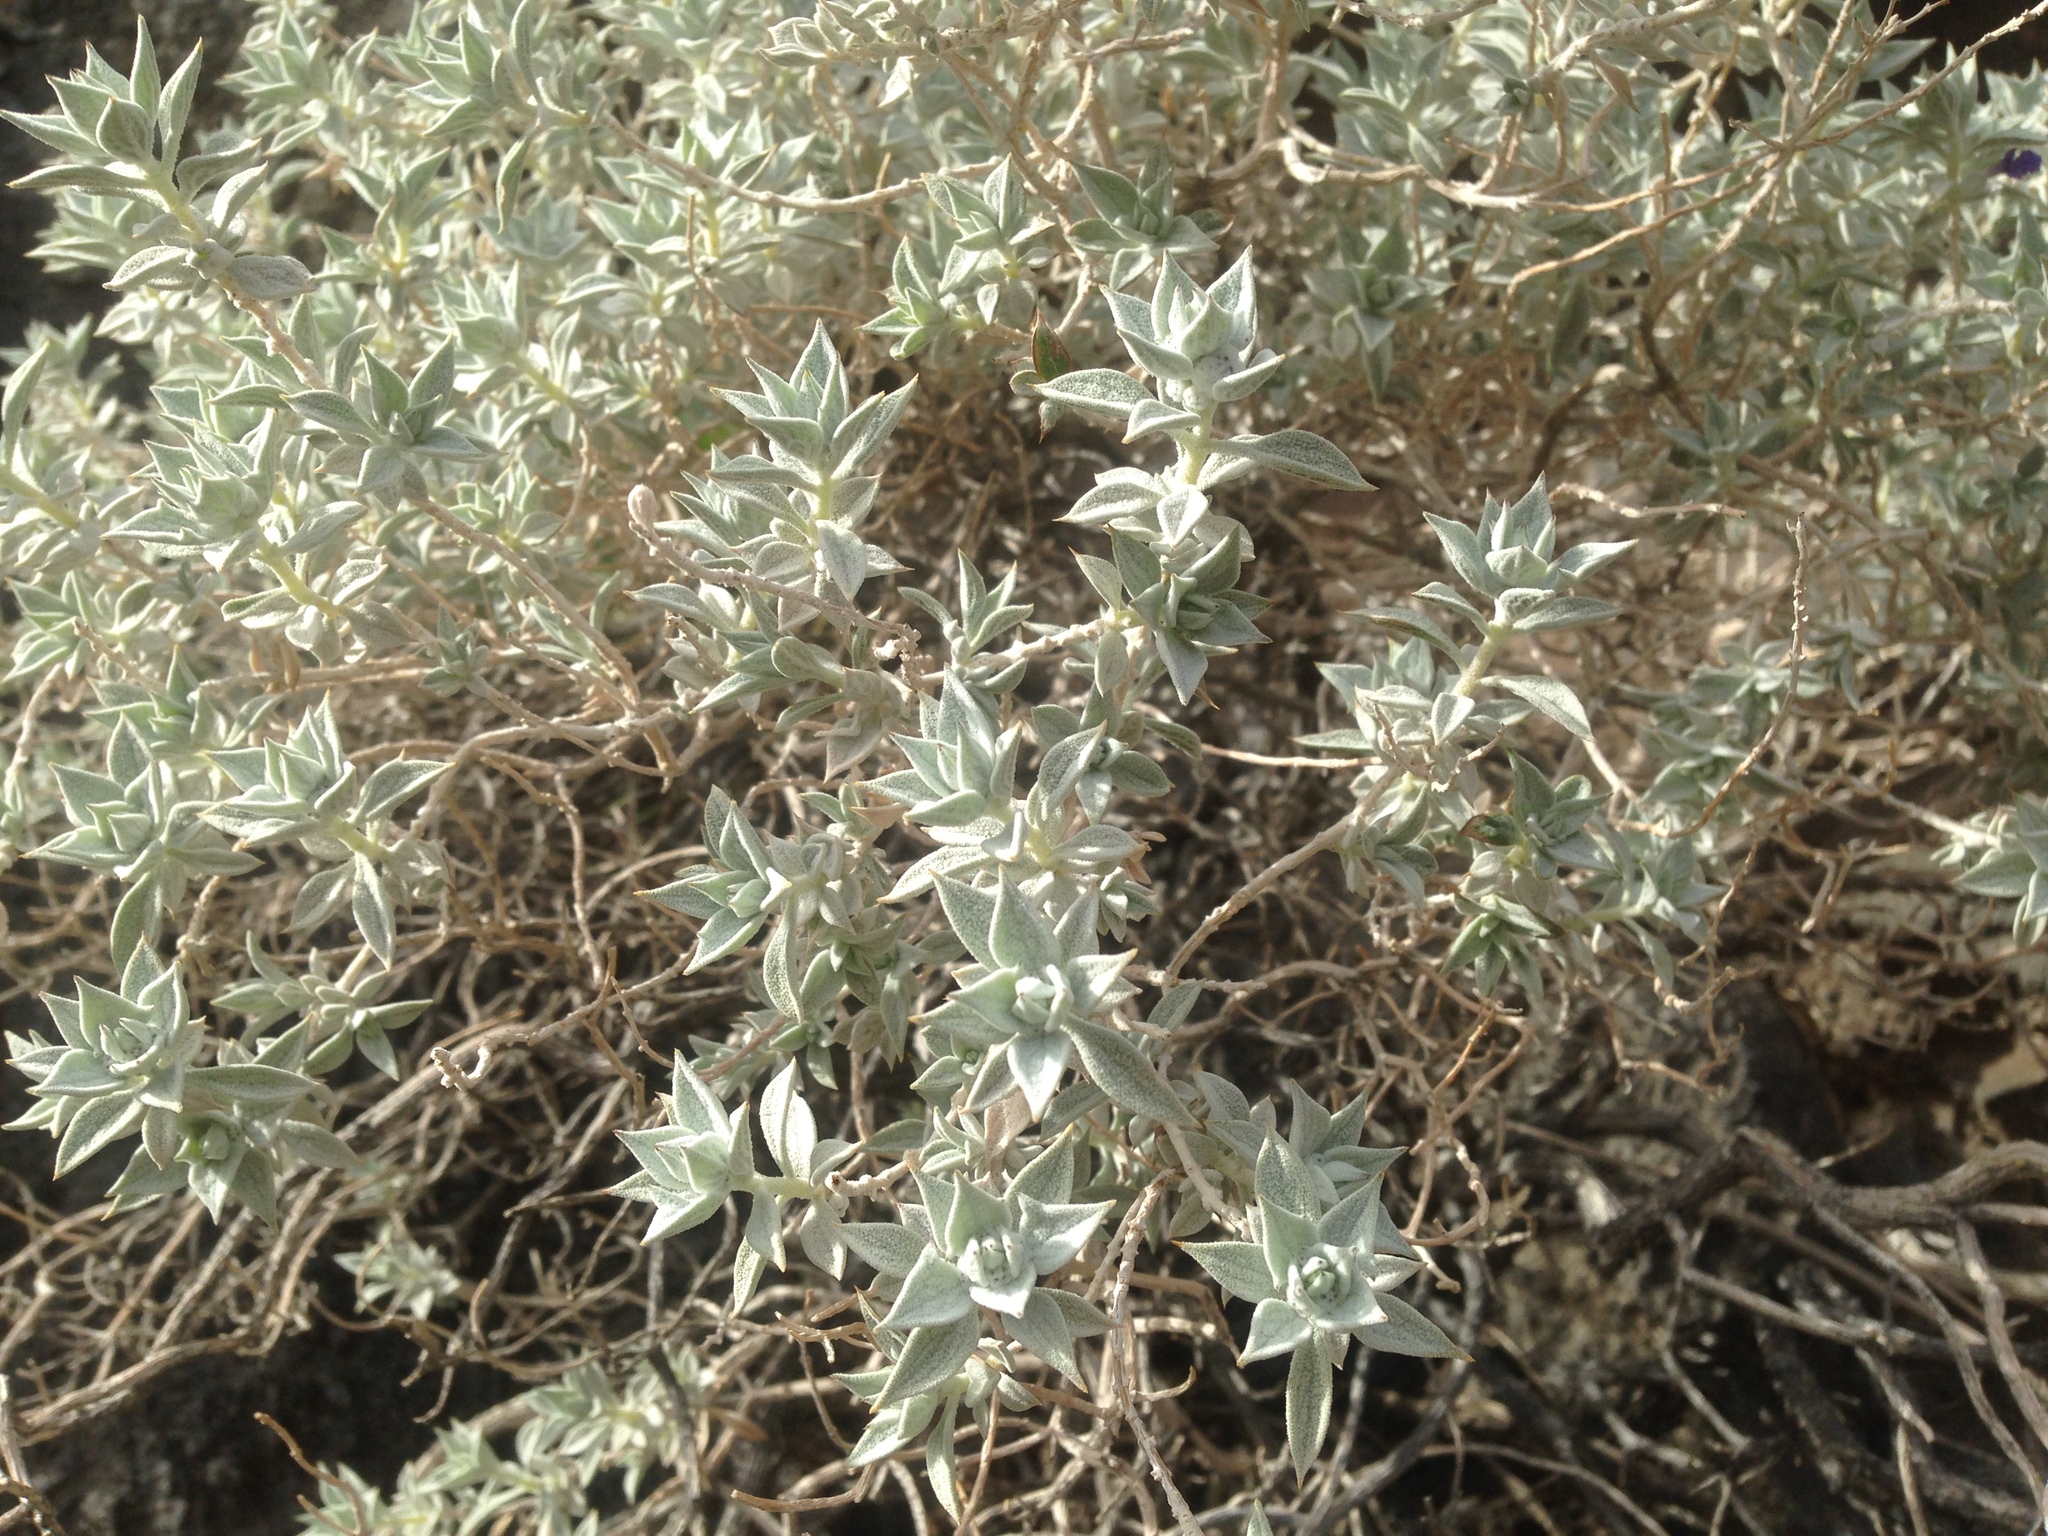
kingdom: Plantae
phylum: Tracheophyta
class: Magnoliopsida
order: Lamiales
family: Lamiaceae
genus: Salvia
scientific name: Salvia funerea
